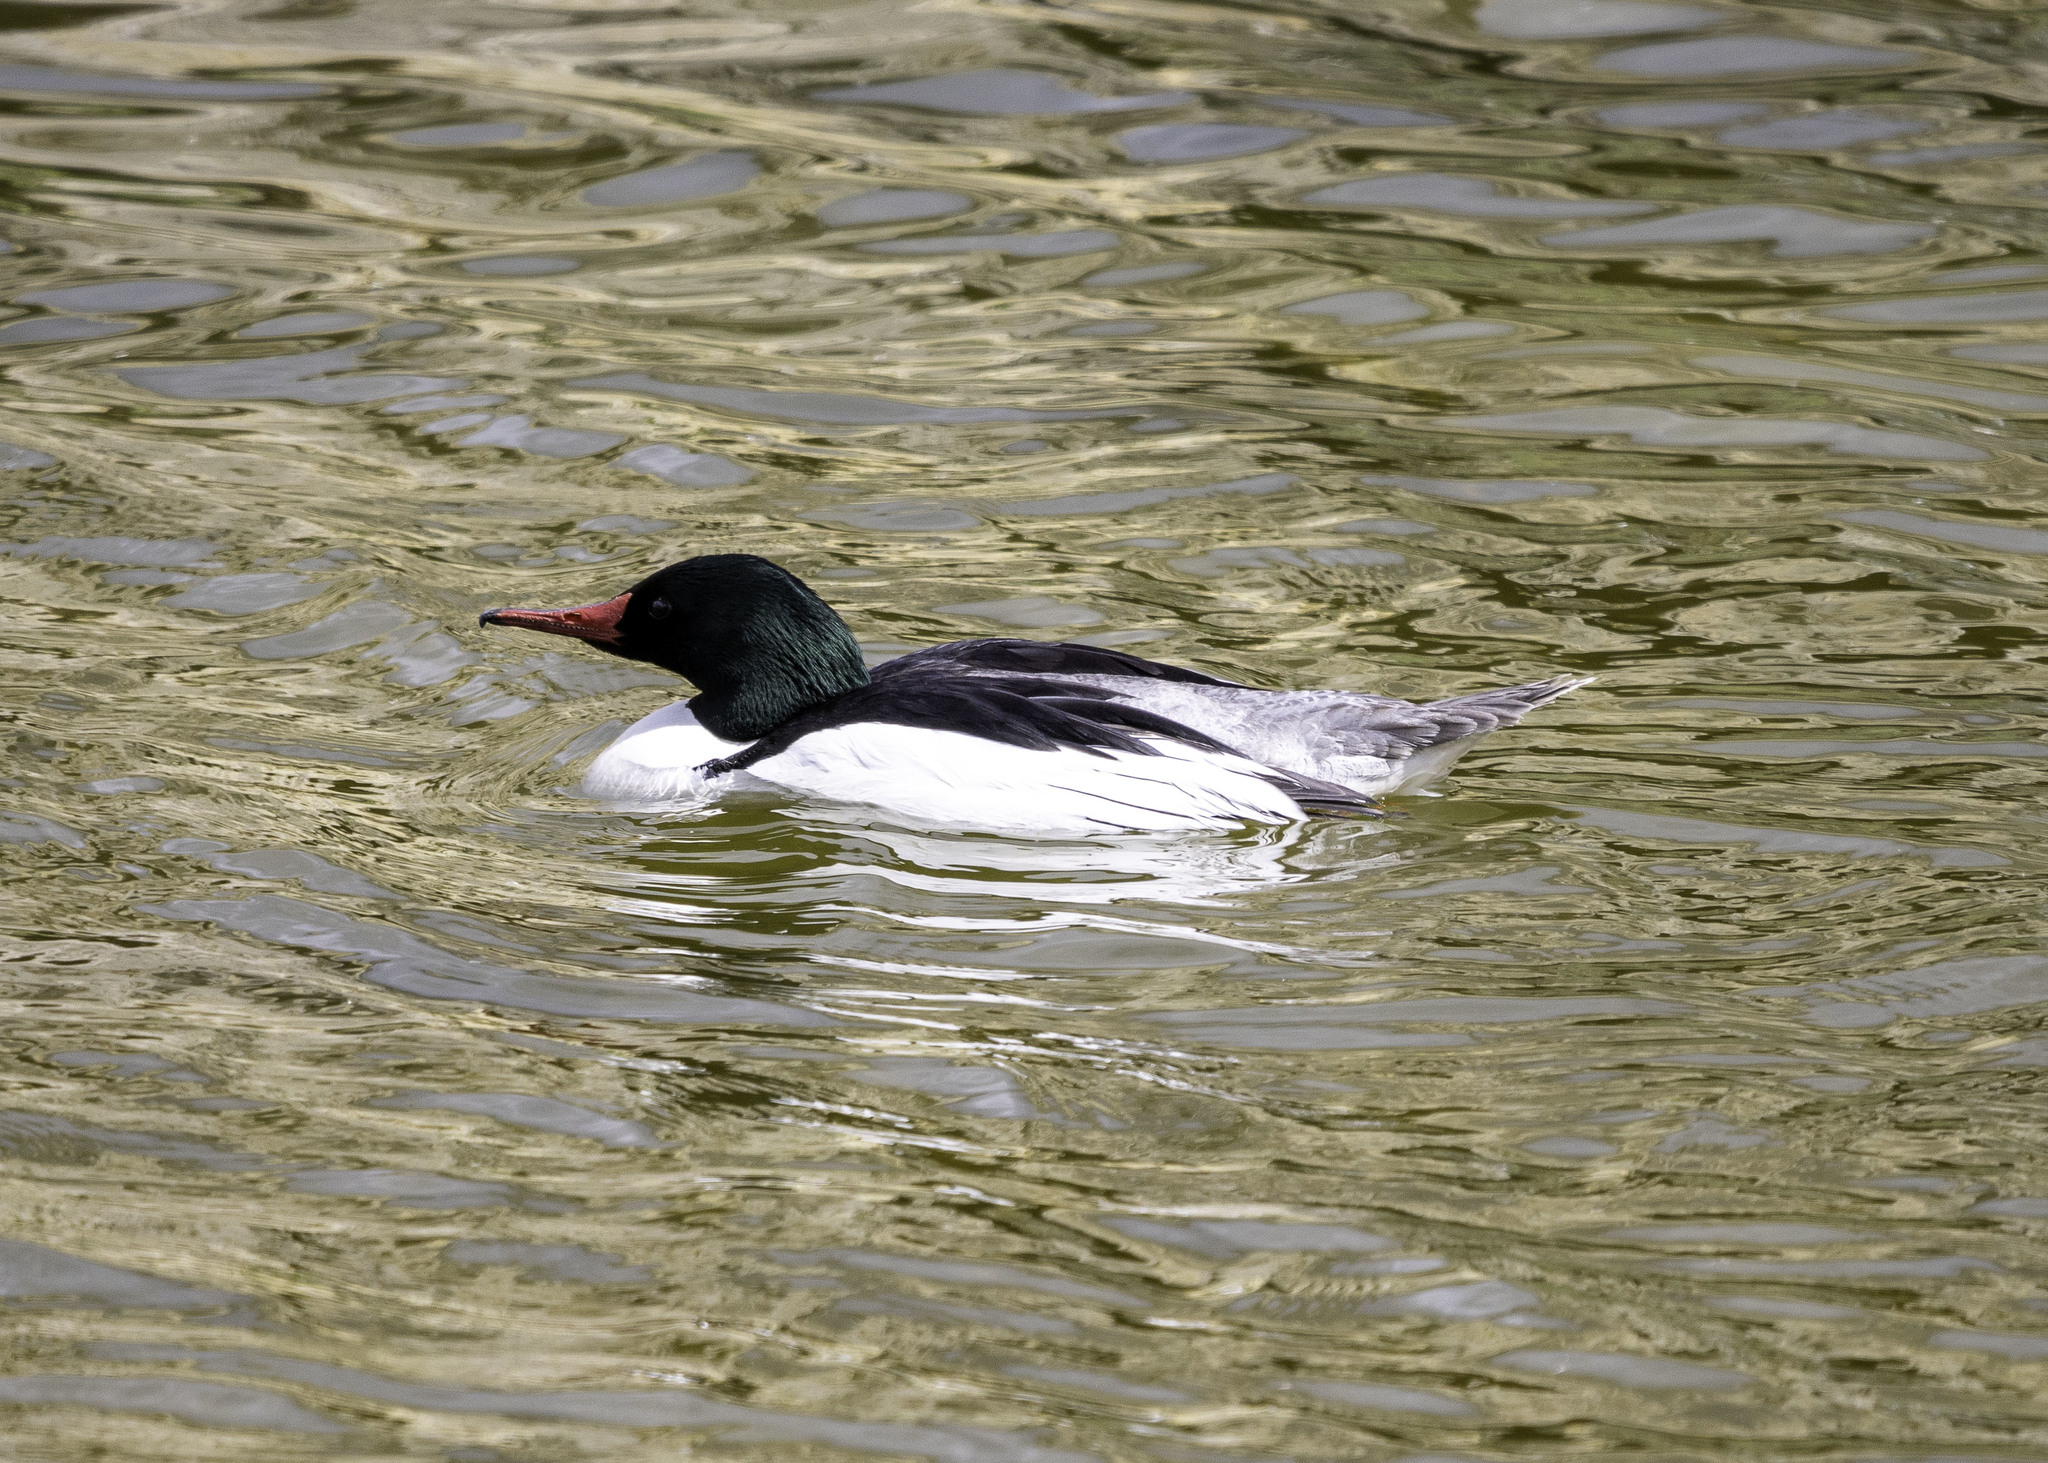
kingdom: Animalia
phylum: Chordata
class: Aves
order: Anseriformes
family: Anatidae
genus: Mergus
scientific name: Mergus merganser
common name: Common merganser
